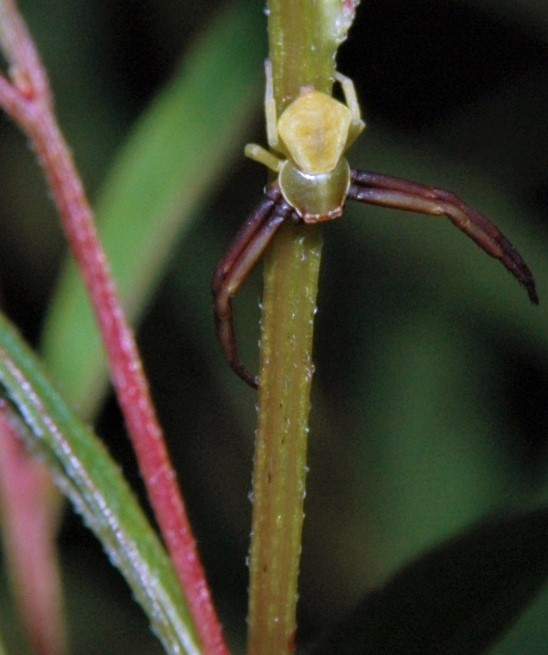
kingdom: Animalia
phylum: Arthropoda
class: Arachnida
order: Araneae
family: Thomisidae
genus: Misumenoides
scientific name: Misumenoides formosipes
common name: White-banded crab spider
